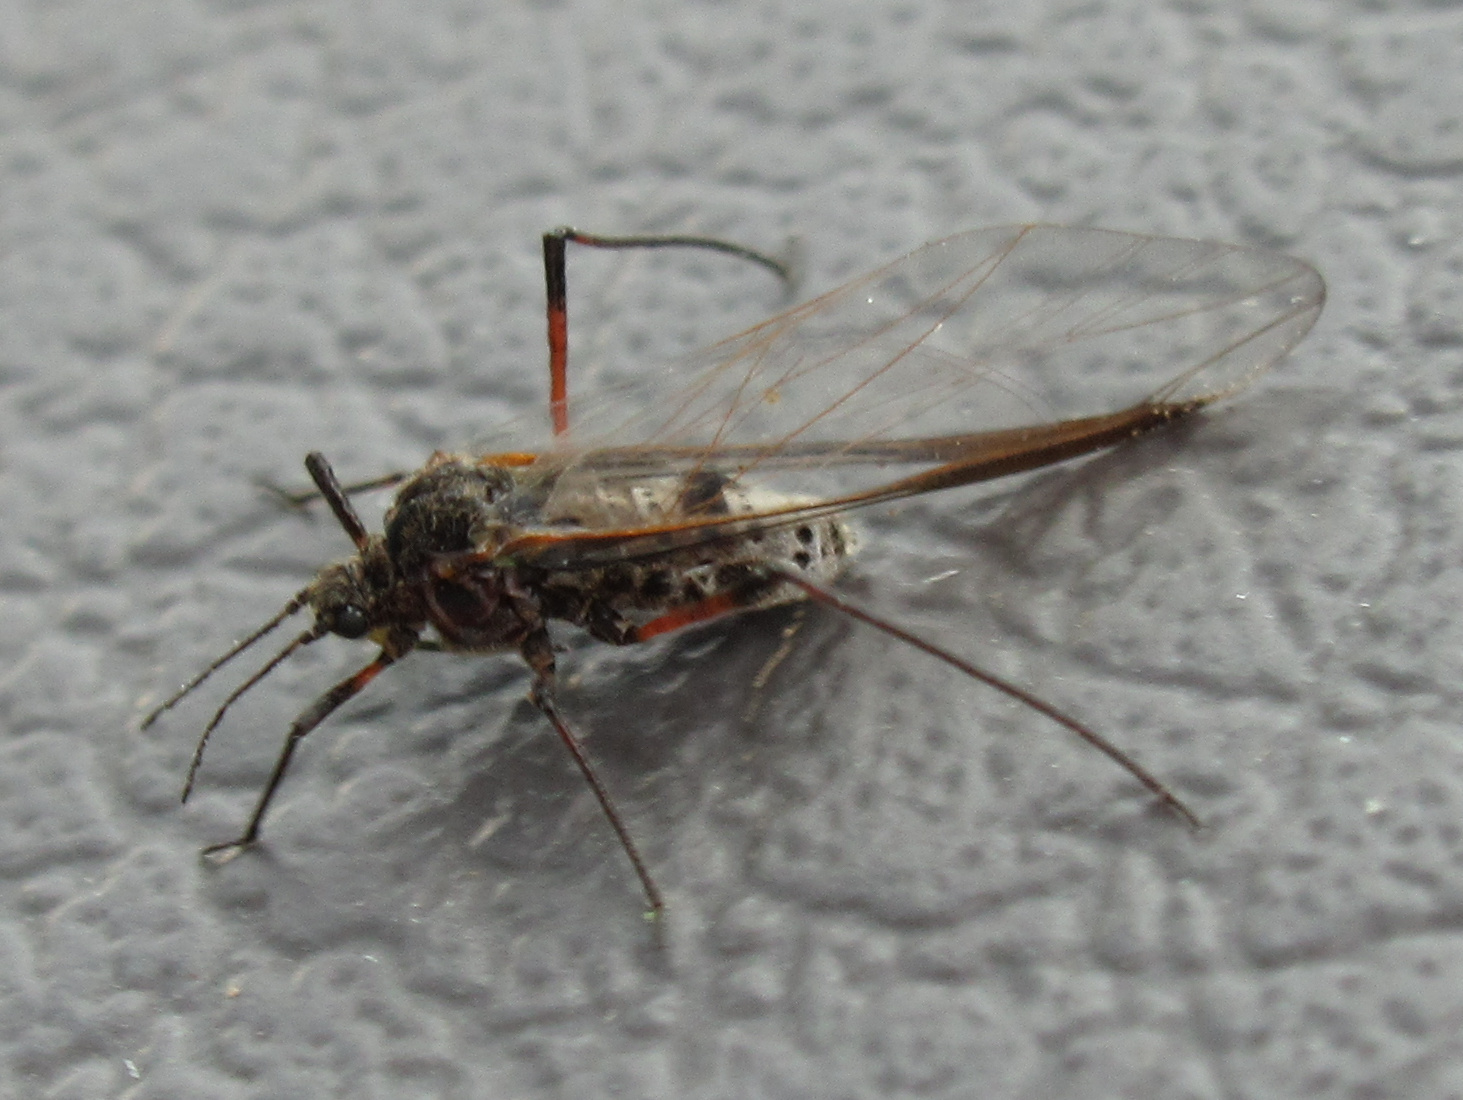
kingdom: Animalia
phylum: Arthropoda
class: Insecta
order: Hemiptera
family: Aphididae
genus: Tuberolachnus
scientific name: Tuberolachnus salignus
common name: Giant willow aphid
